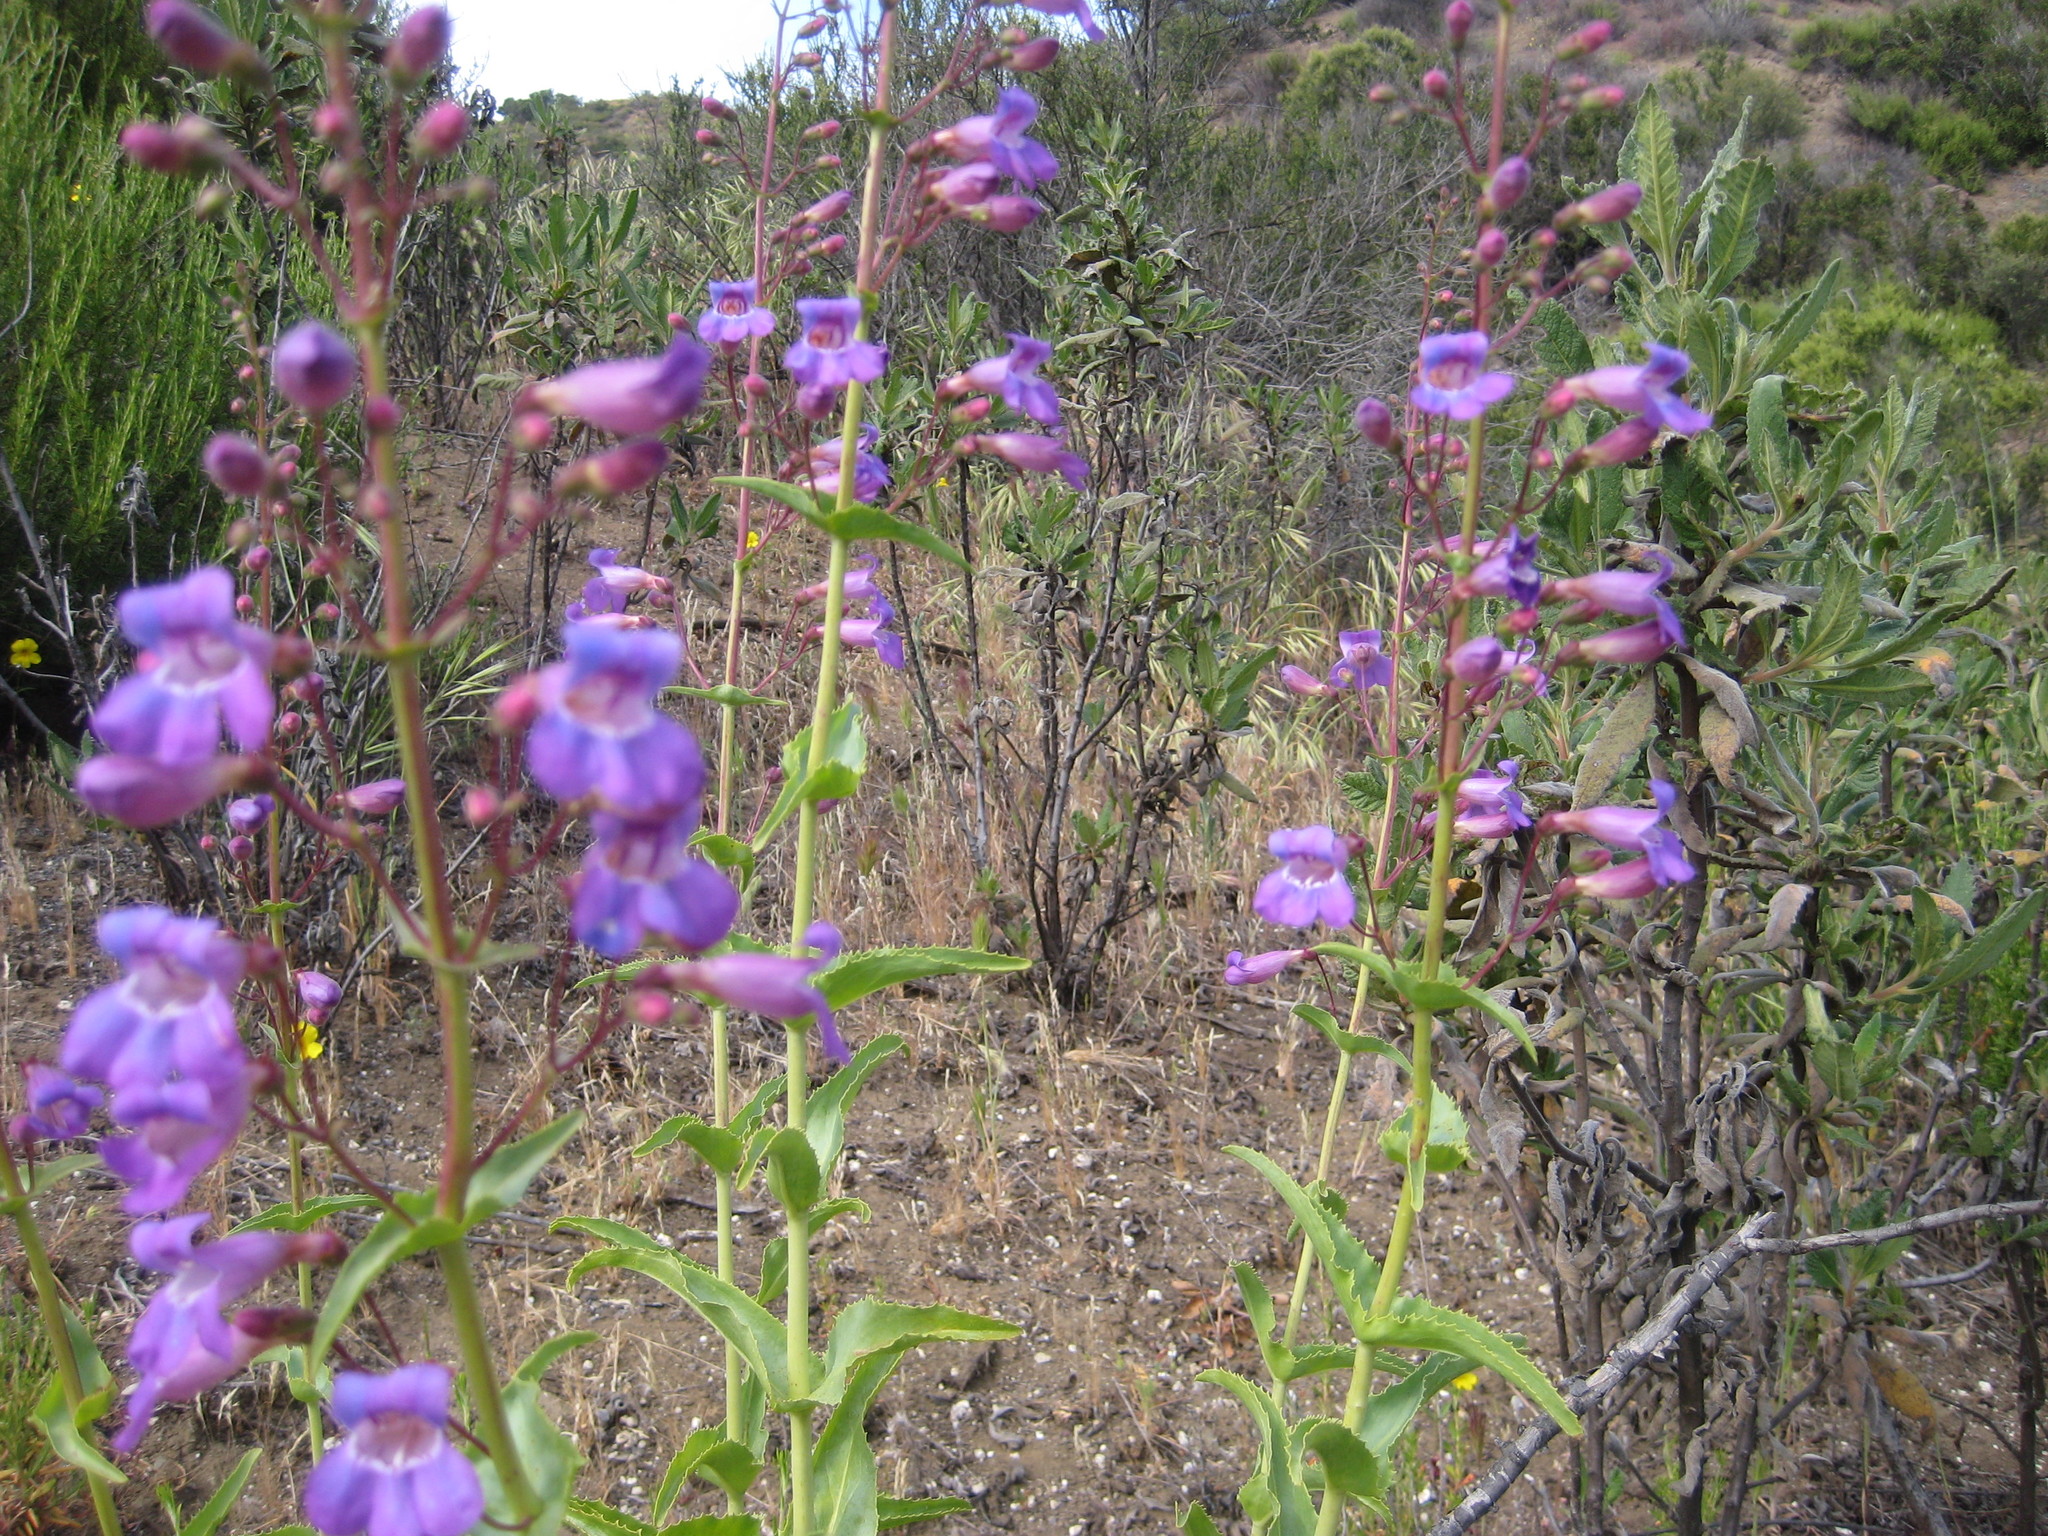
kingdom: Plantae
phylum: Tracheophyta
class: Magnoliopsida
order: Lamiales
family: Plantaginaceae
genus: Penstemon
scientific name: Penstemon spectabilis
